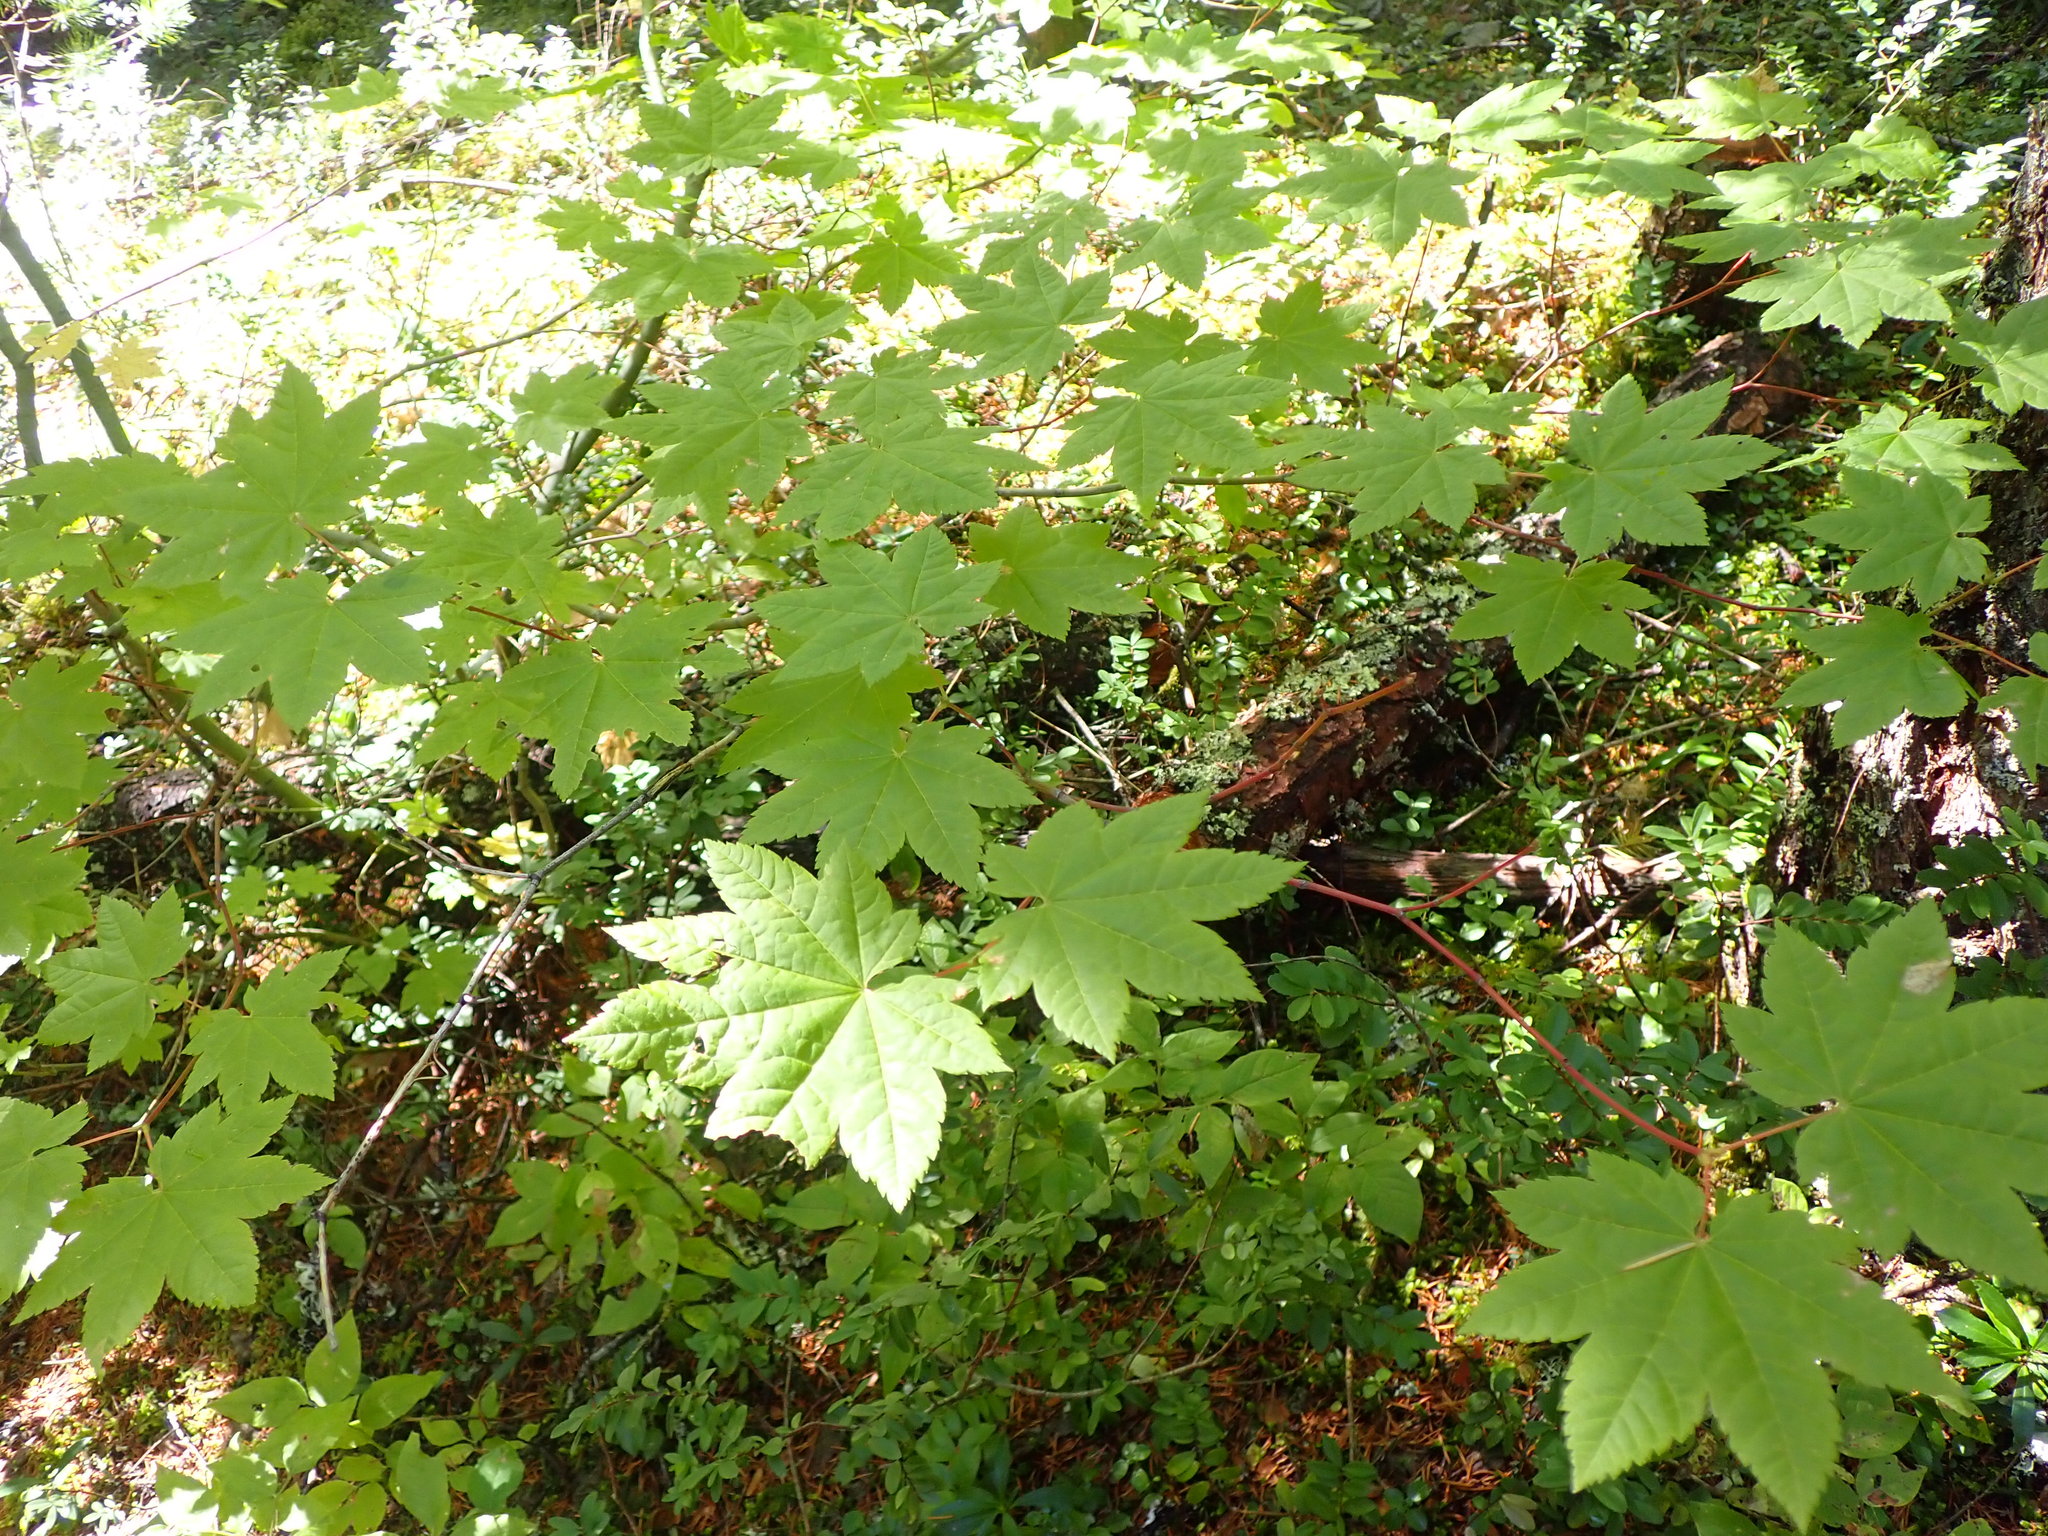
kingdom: Plantae
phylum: Tracheophyta
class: Magnoliopsida
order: Sapindales
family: Sapindaceae
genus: Acer
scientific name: Acer circinatum
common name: Vine maple
